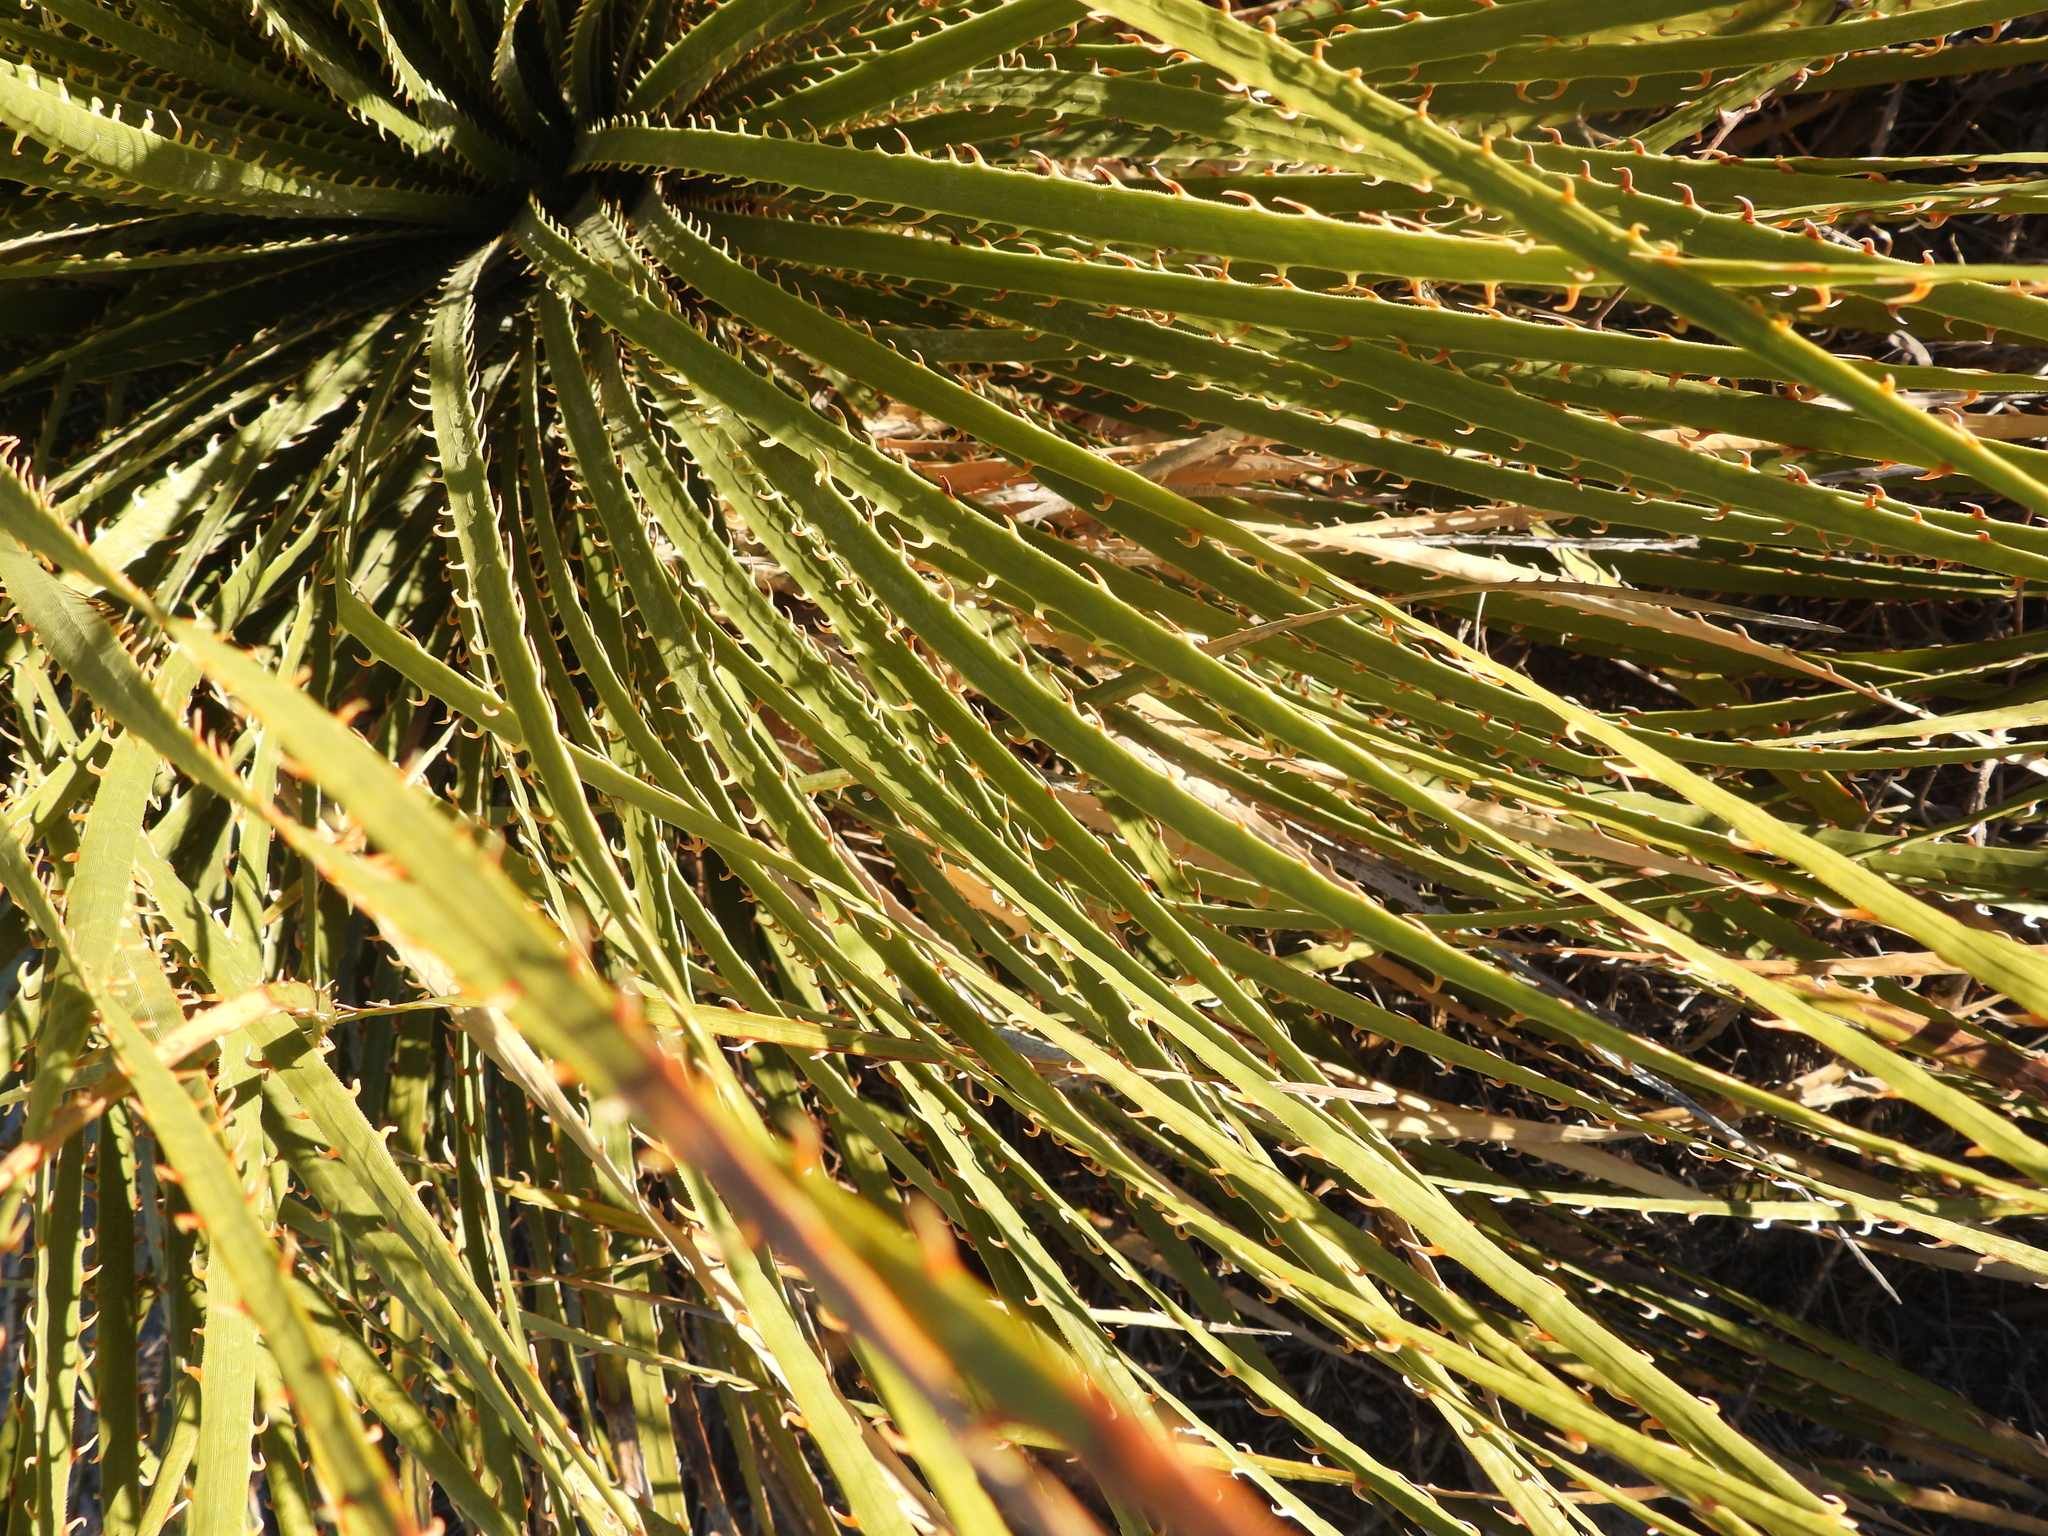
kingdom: Plantae
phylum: Tracheophyta
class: Liliopsida
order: Asparagales
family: Asparagaceae
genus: Dasylirion
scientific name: Dasylirion leiophyllum
